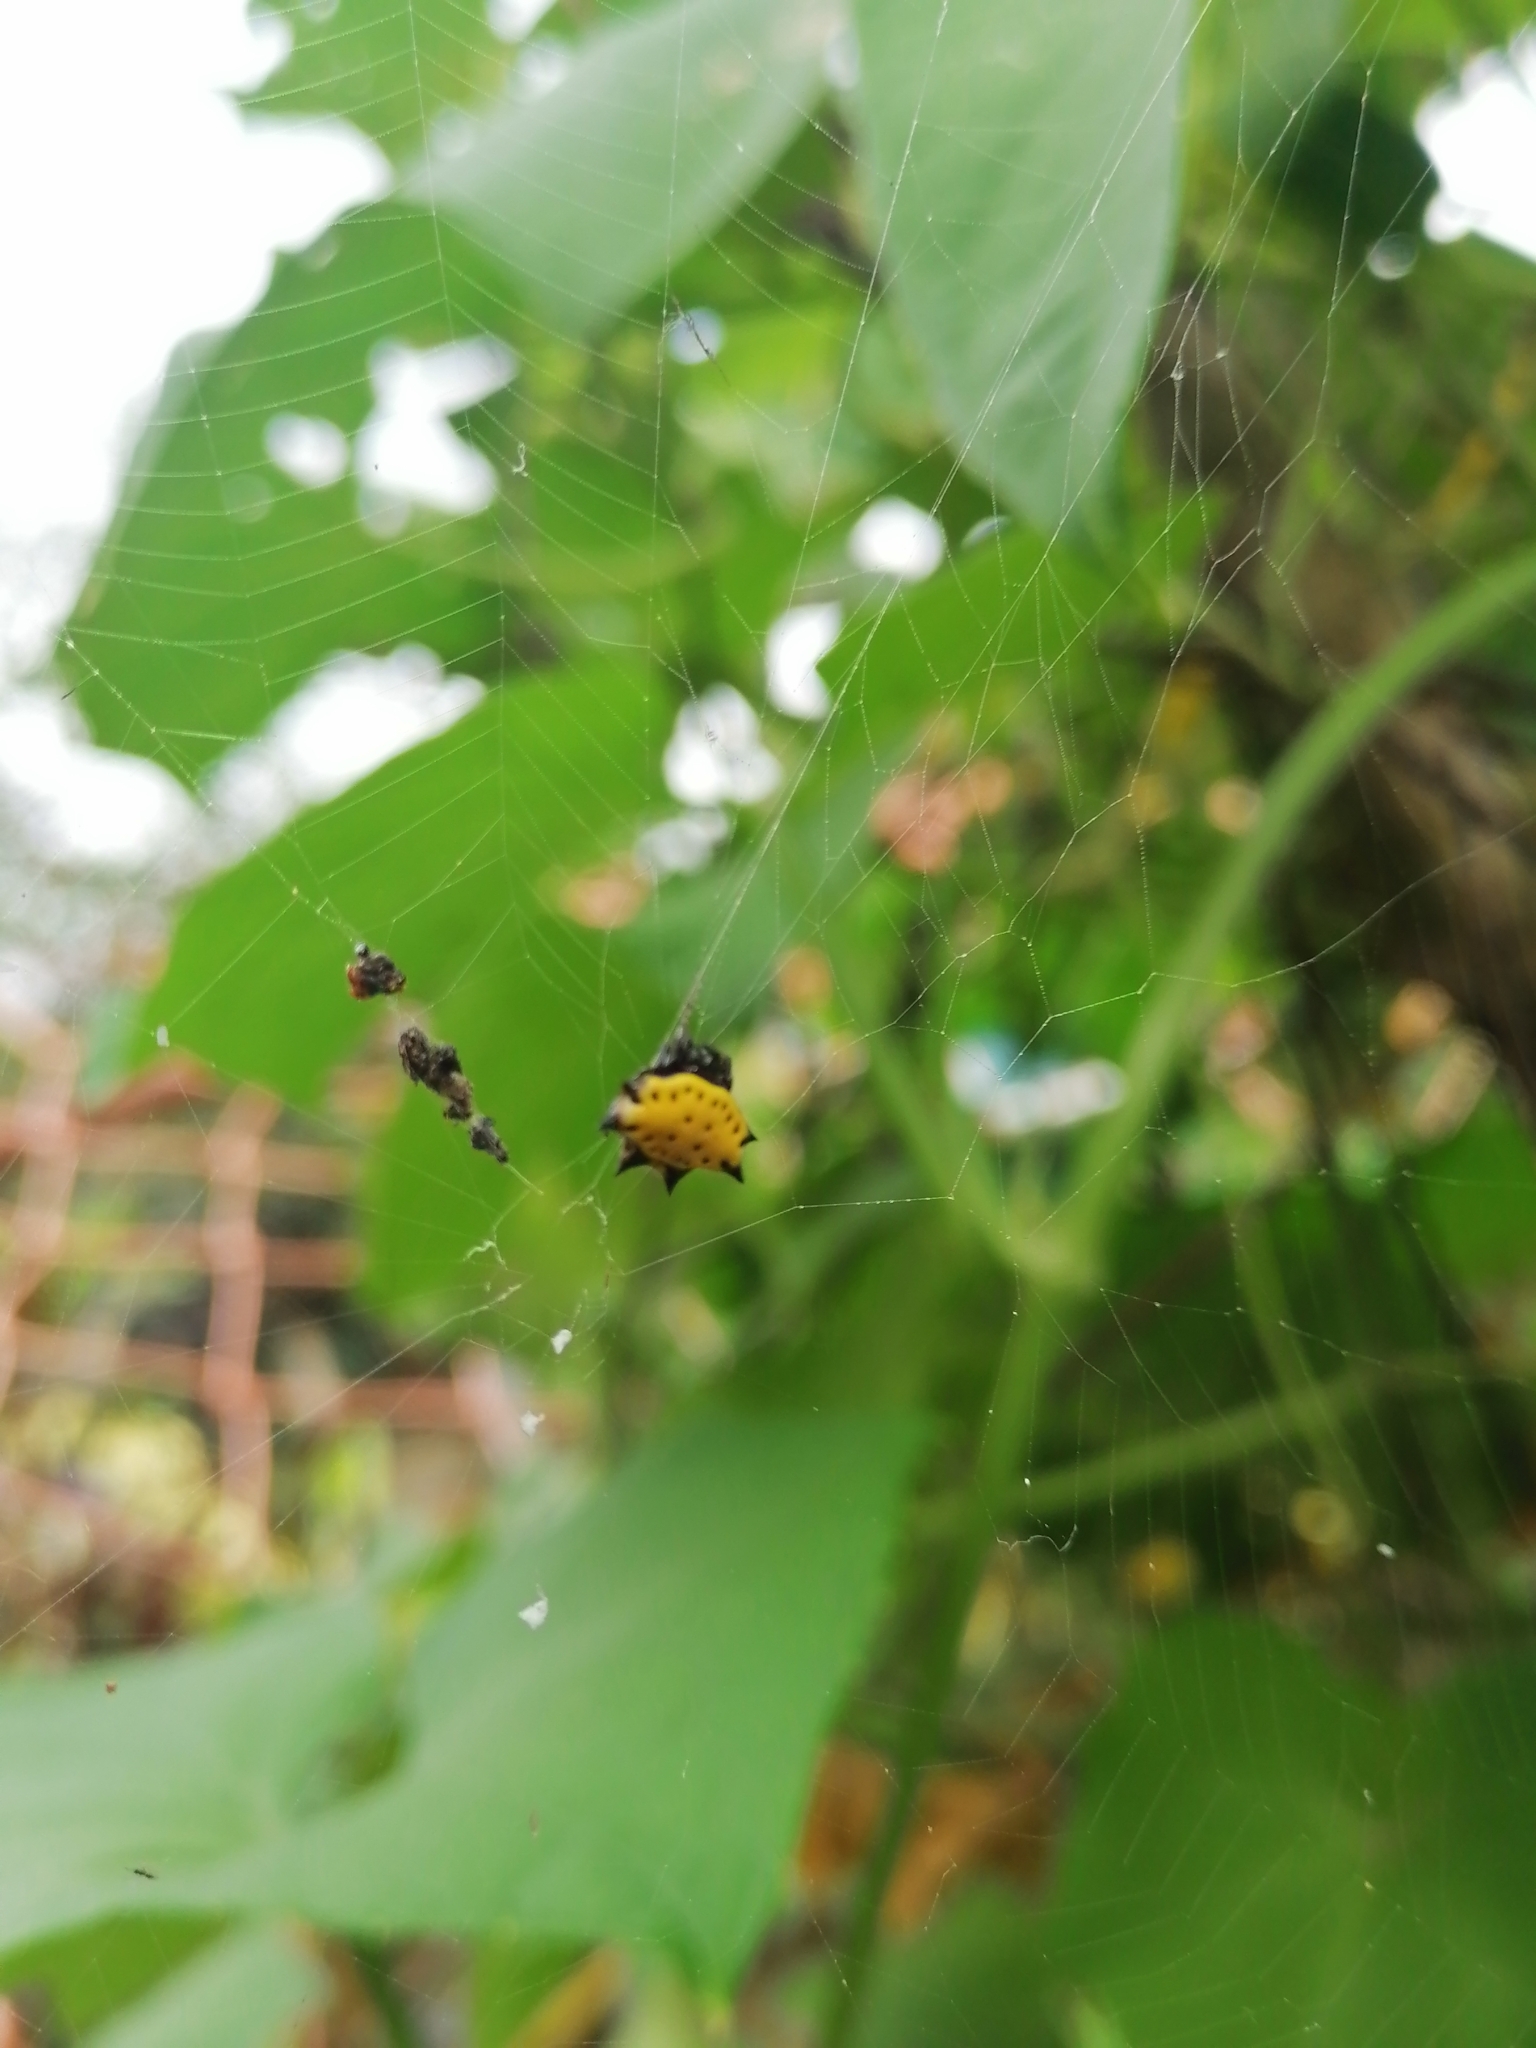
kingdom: Animalia
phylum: Arthropoda
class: Arachnida
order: Araneae
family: Araneidae
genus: Gasteracantha
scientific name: Gasteracantha cancriformis
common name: Orb weavers
